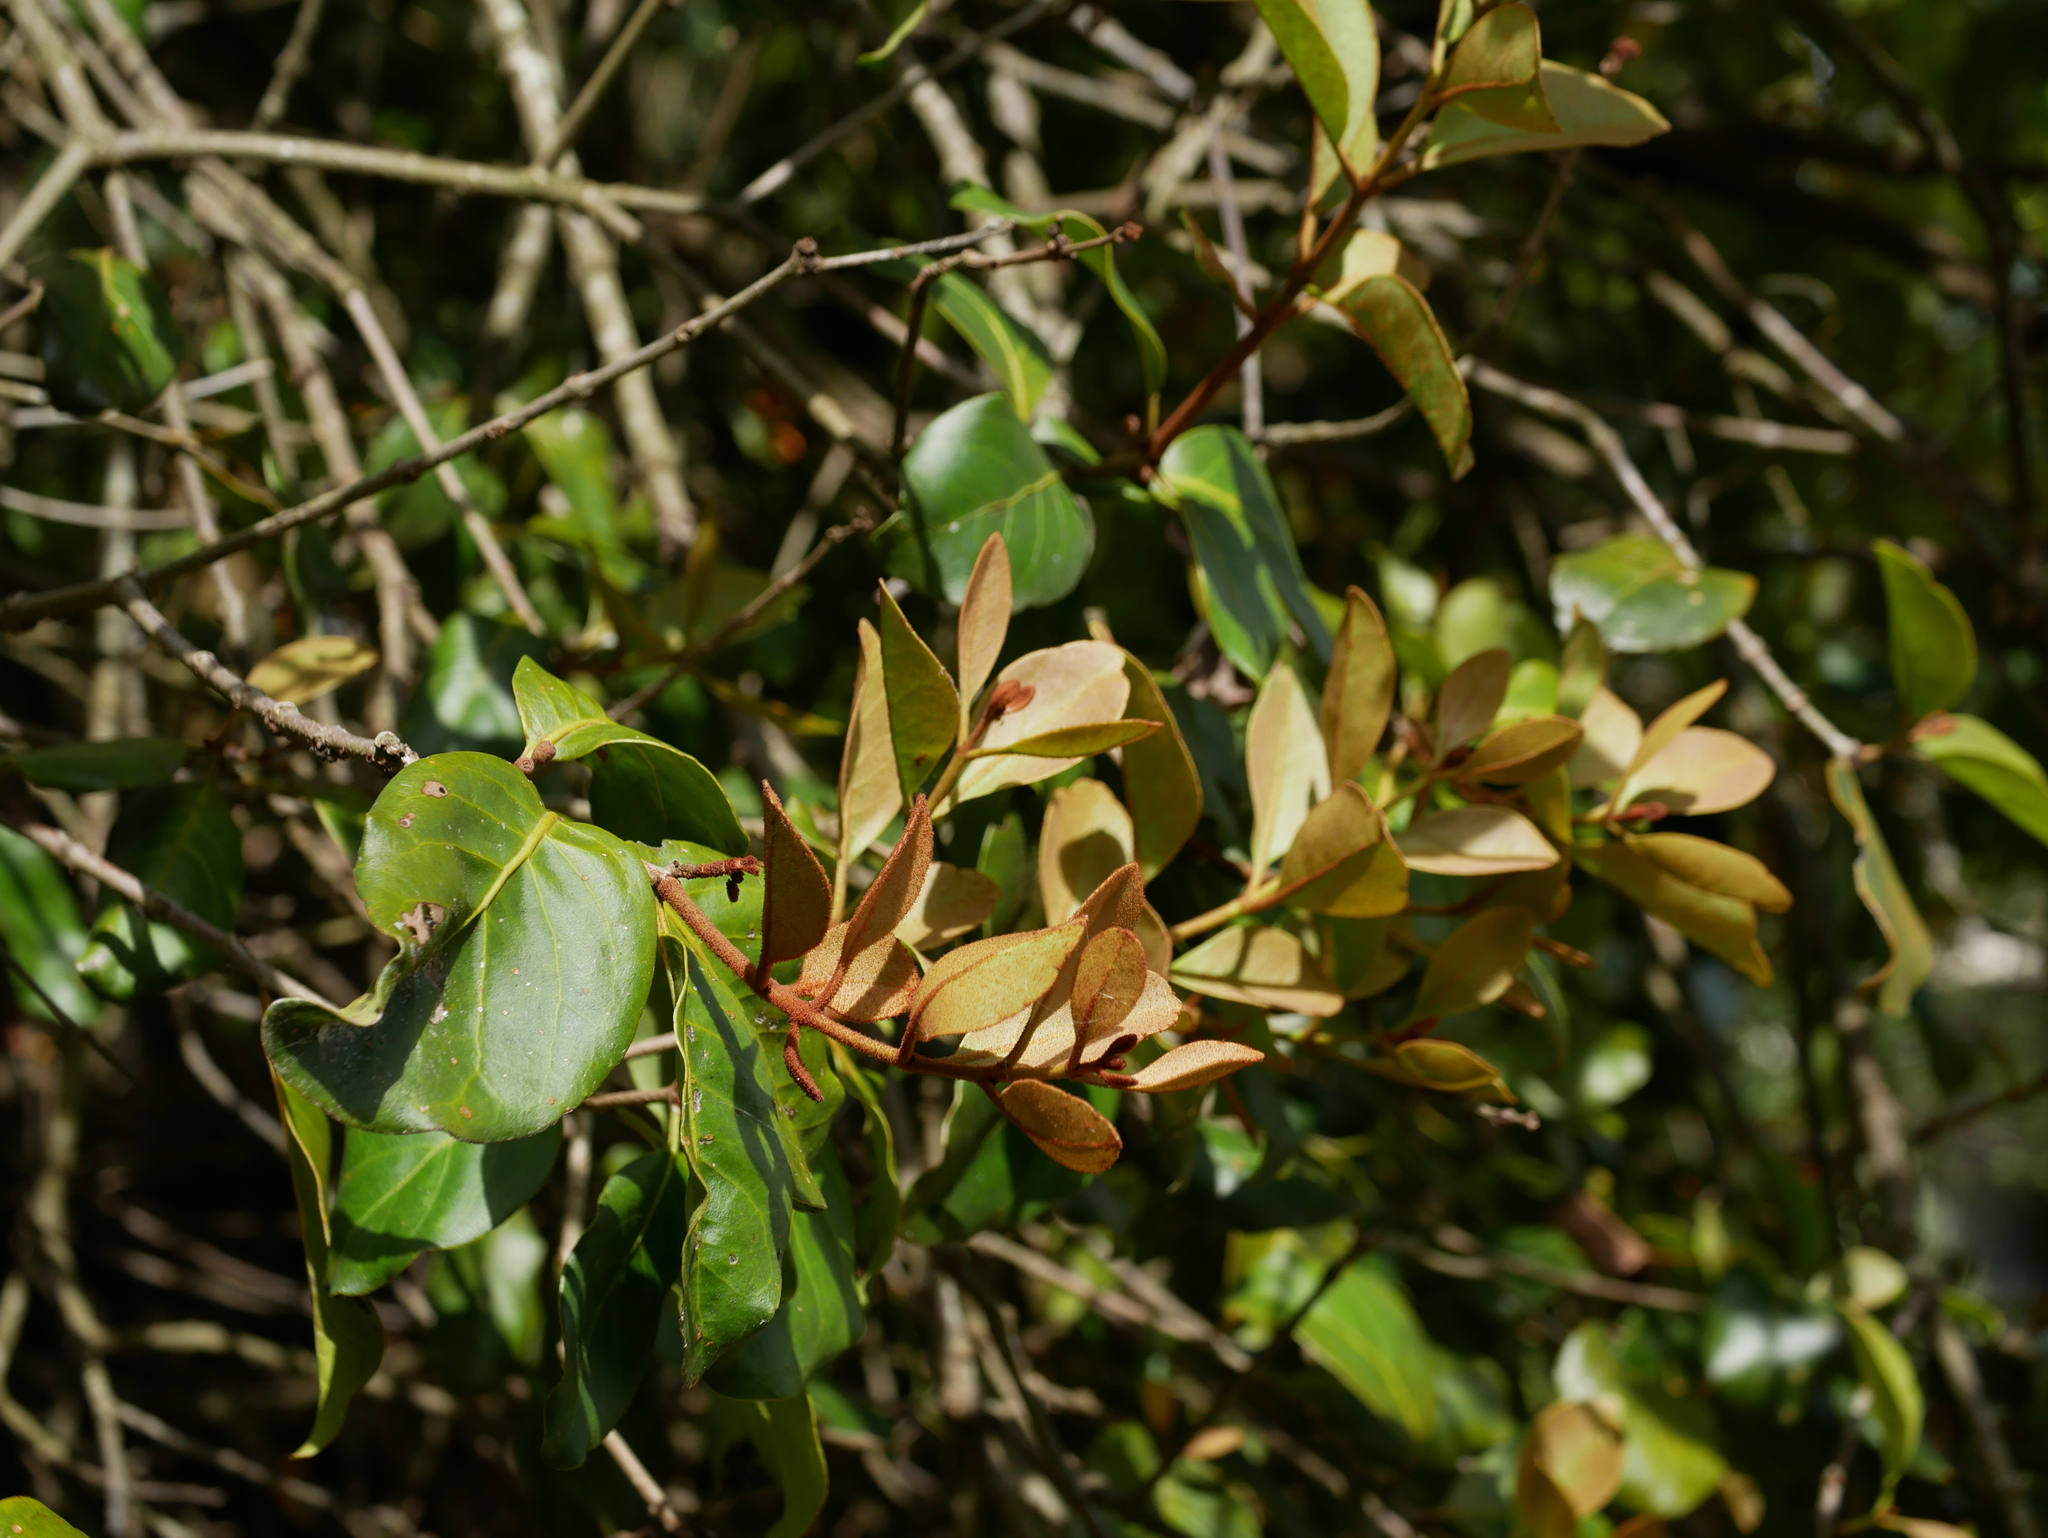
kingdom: Plantae
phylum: Tracheophyta
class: Magnoliopsida
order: Santalales
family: Loranthaceae
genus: Taxillus
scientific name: Taxillus liquidambaricola
